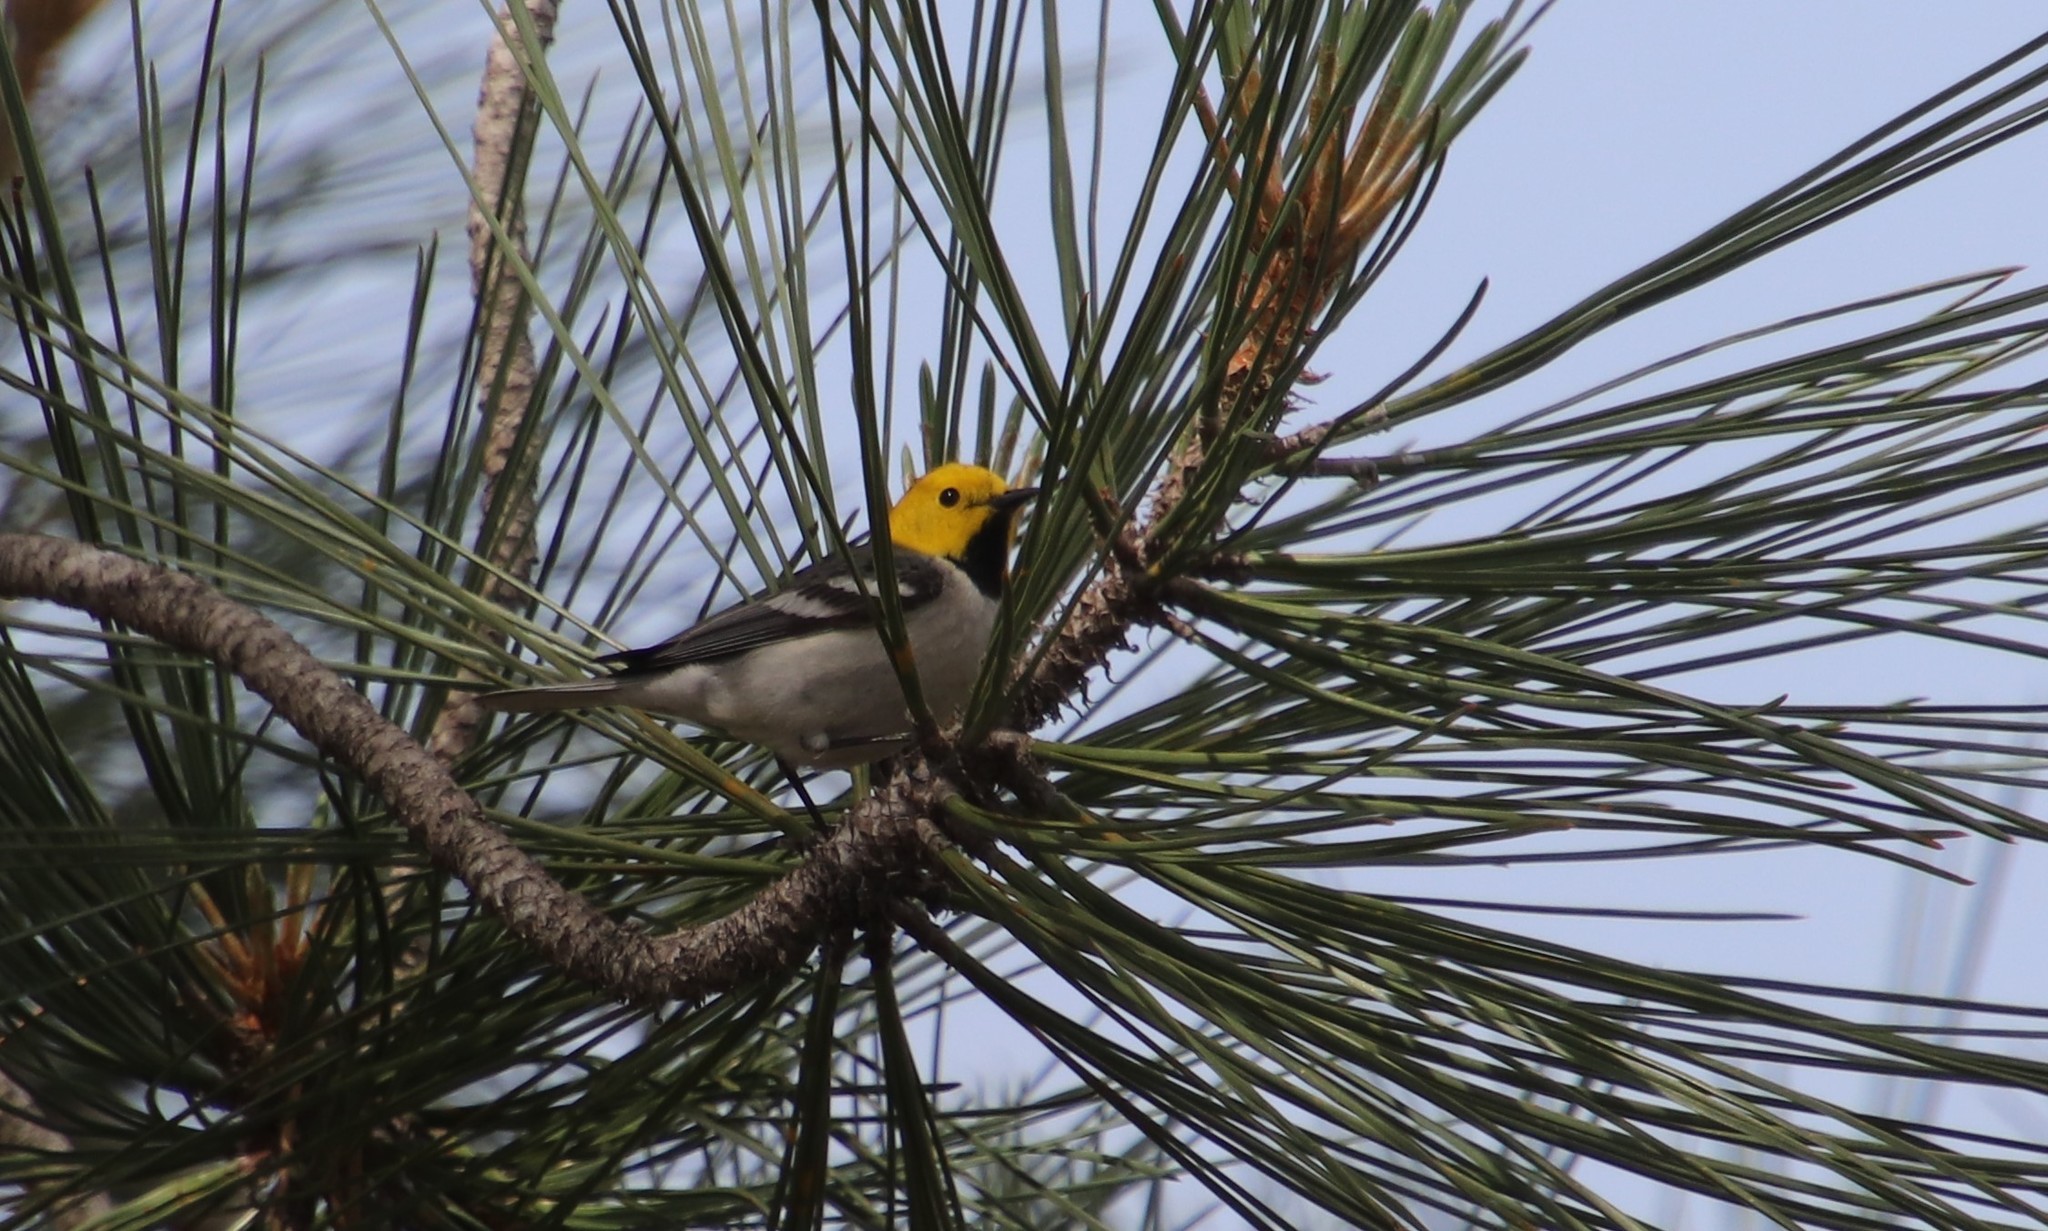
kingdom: Animalia
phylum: Chordata
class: Aves
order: Passeriformes
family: Parulidae
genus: Setophaga
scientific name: Setophaga occidentalis
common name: Hermit warbler
